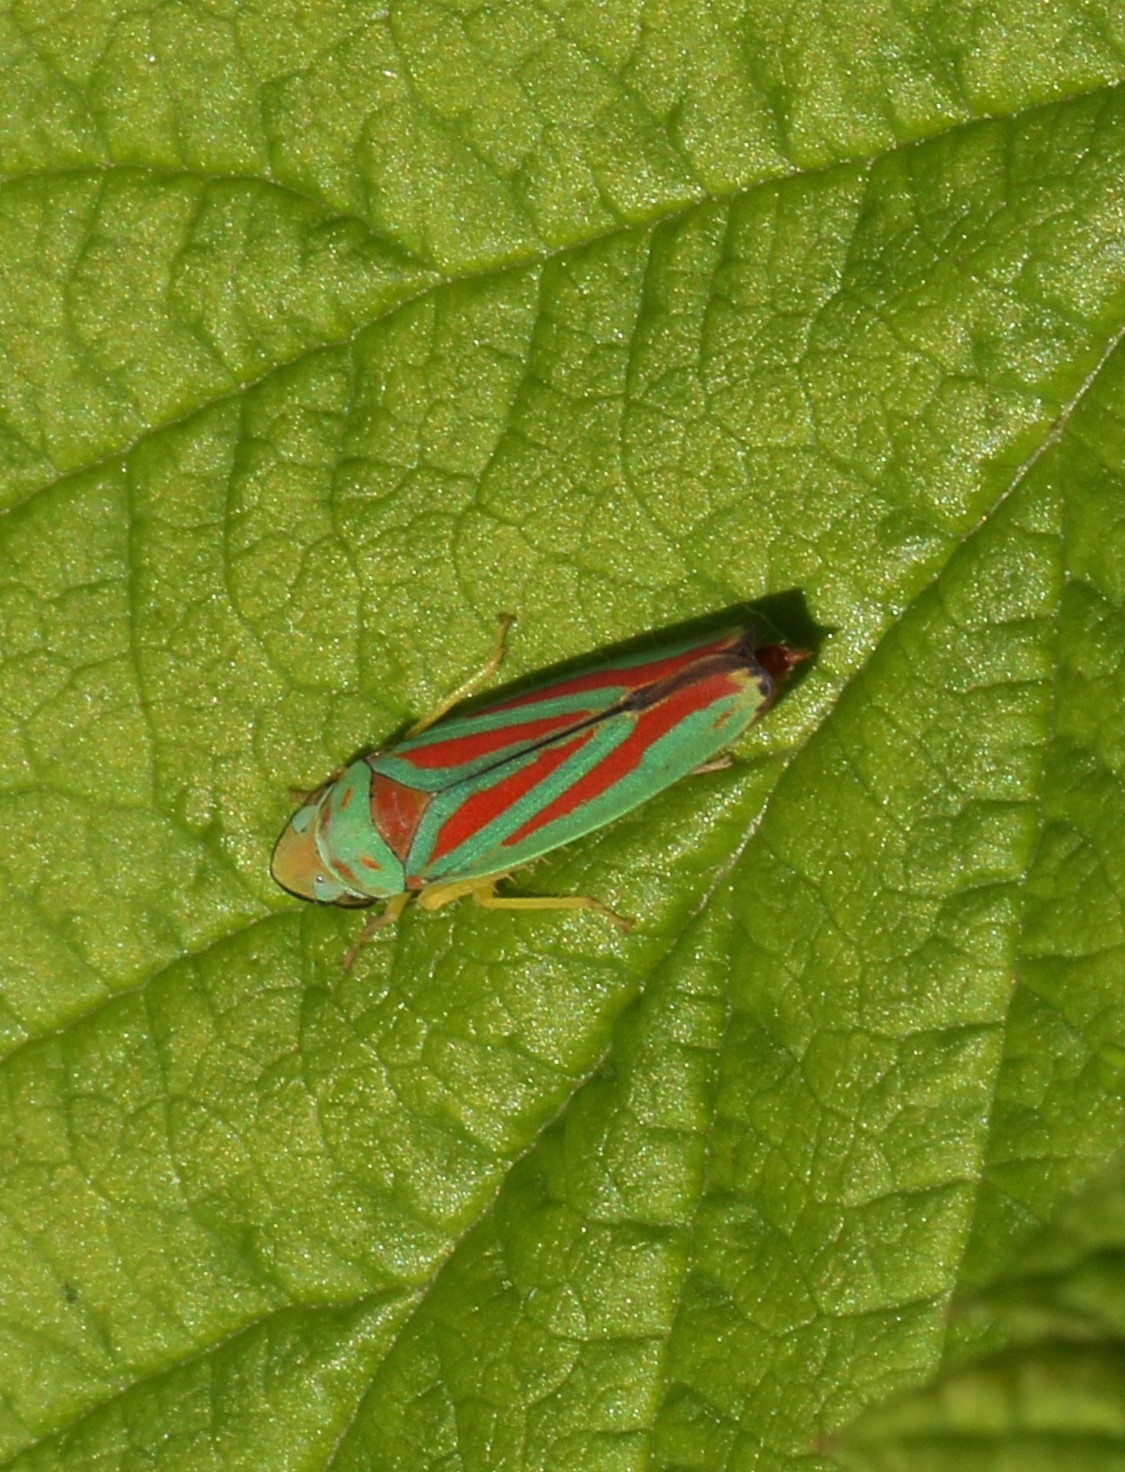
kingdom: Animalia
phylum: Arthropoda
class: Insecta
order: Hemiptera
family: Cicadellidae
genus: Graphocephala
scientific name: Graphocephala coccinea
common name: Candy-striped leafhopper
